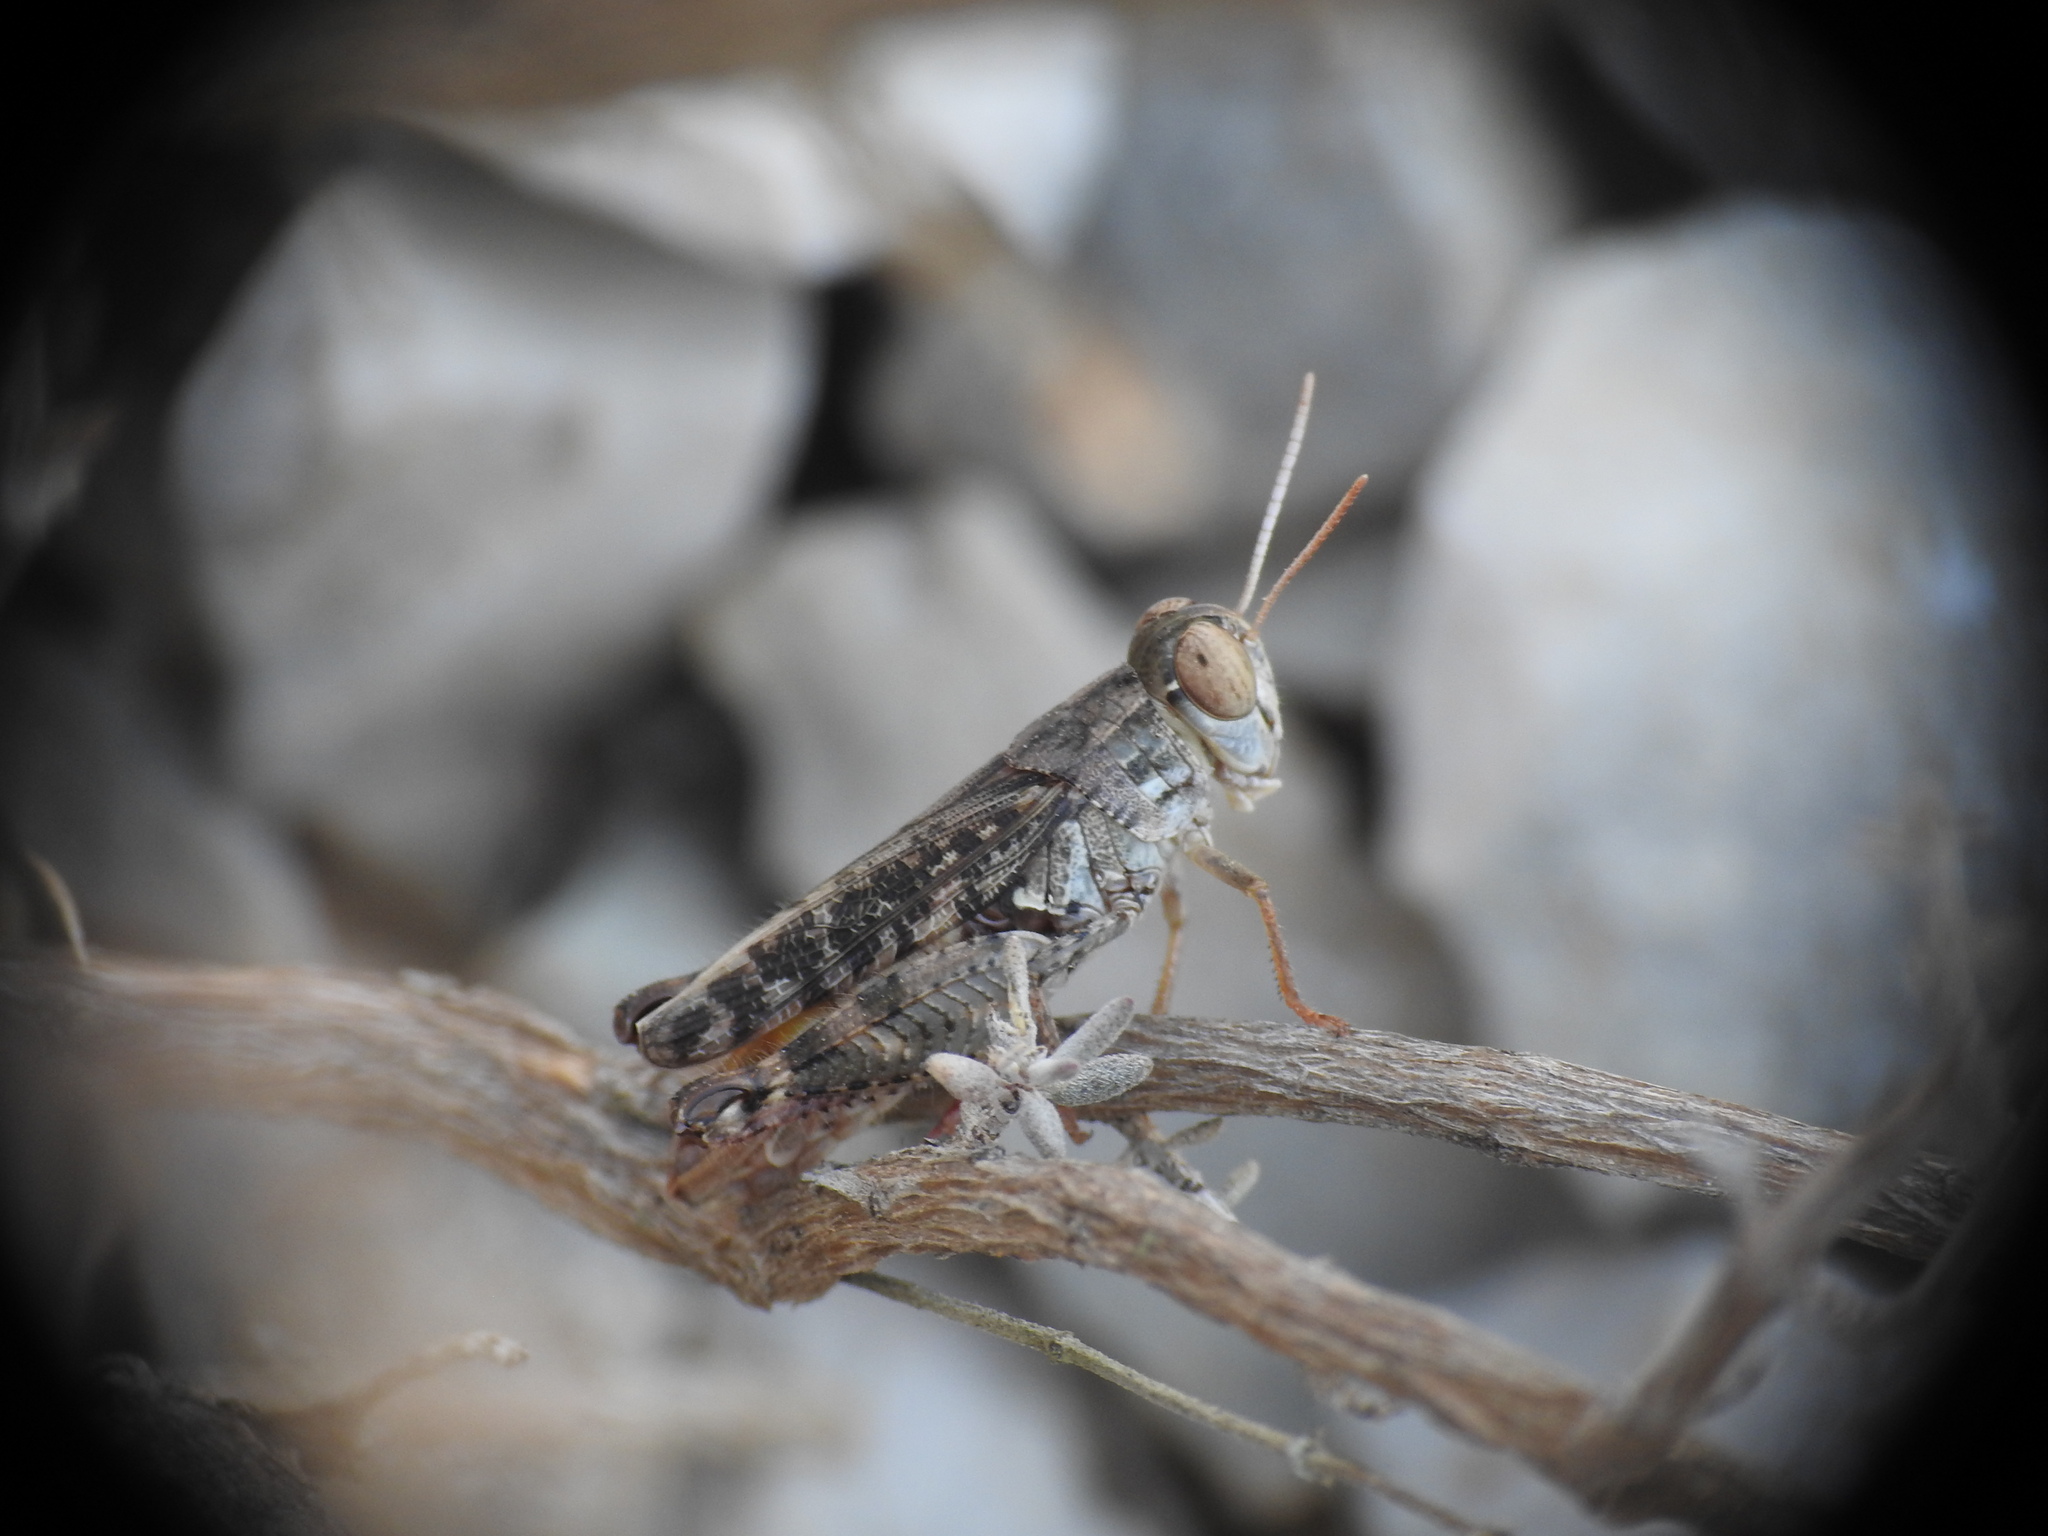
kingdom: Animalia
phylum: Arthropoda
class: Insecta
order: Orthoptera
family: Acrididae
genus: Calliptamus
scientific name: Calliptamus wattenwylianus
